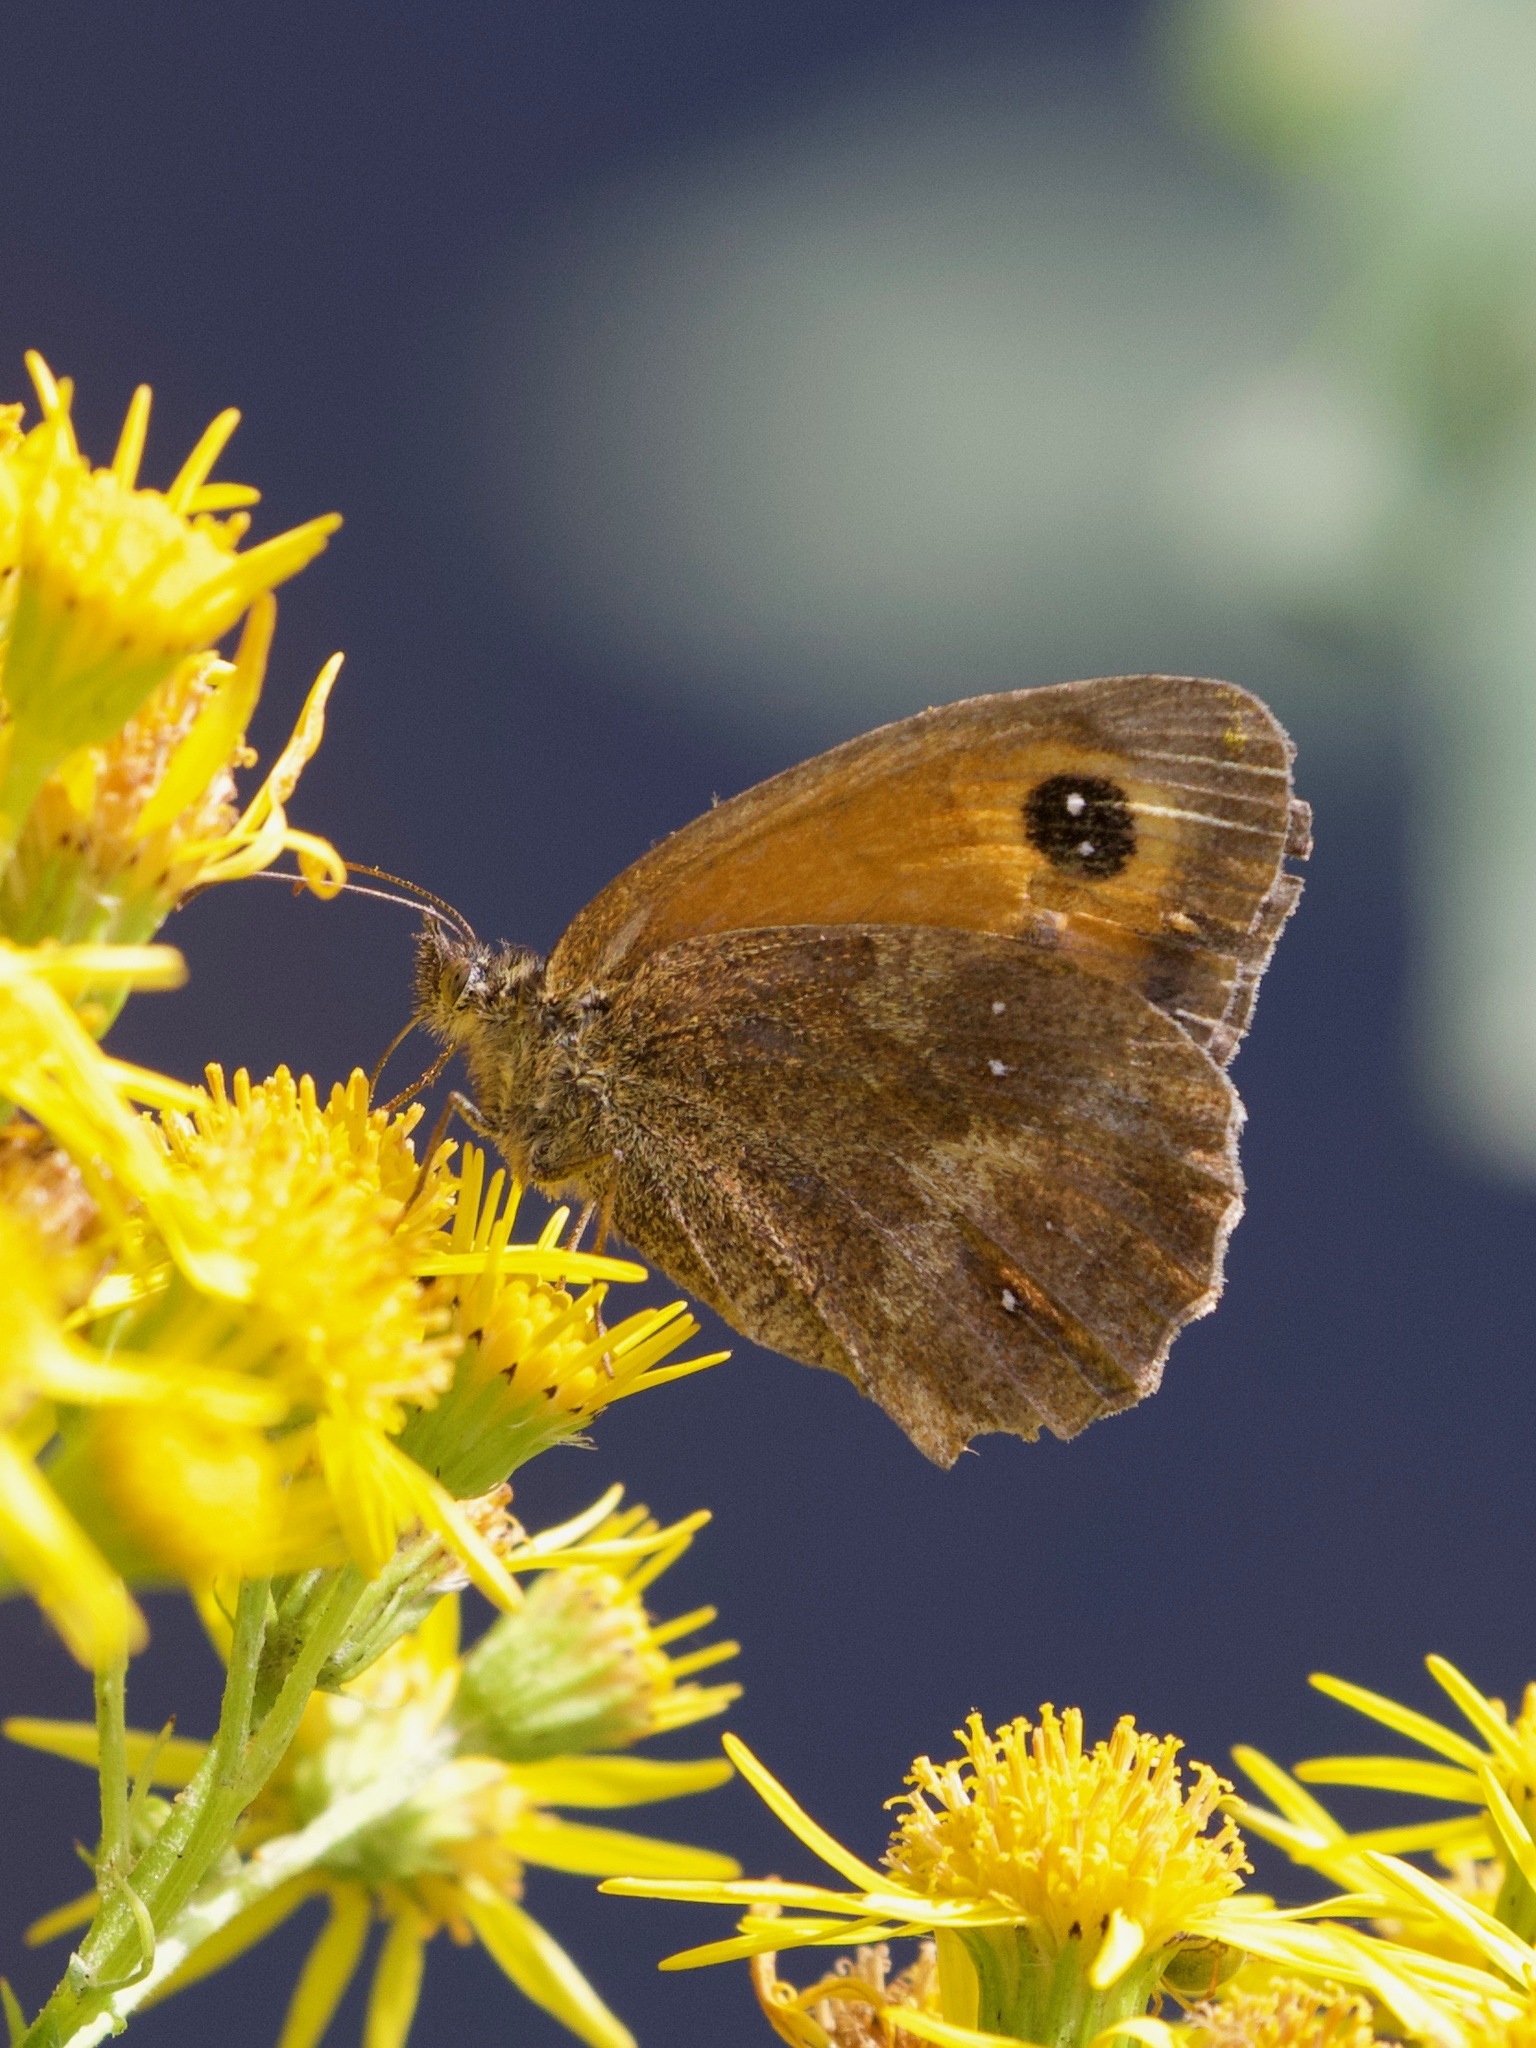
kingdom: Animalia
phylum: Arthropoda
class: Insecta
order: Lepidoptera
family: Nymphalidae
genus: Pyronia
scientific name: Pyronia tithonus
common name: Gatekeeper
